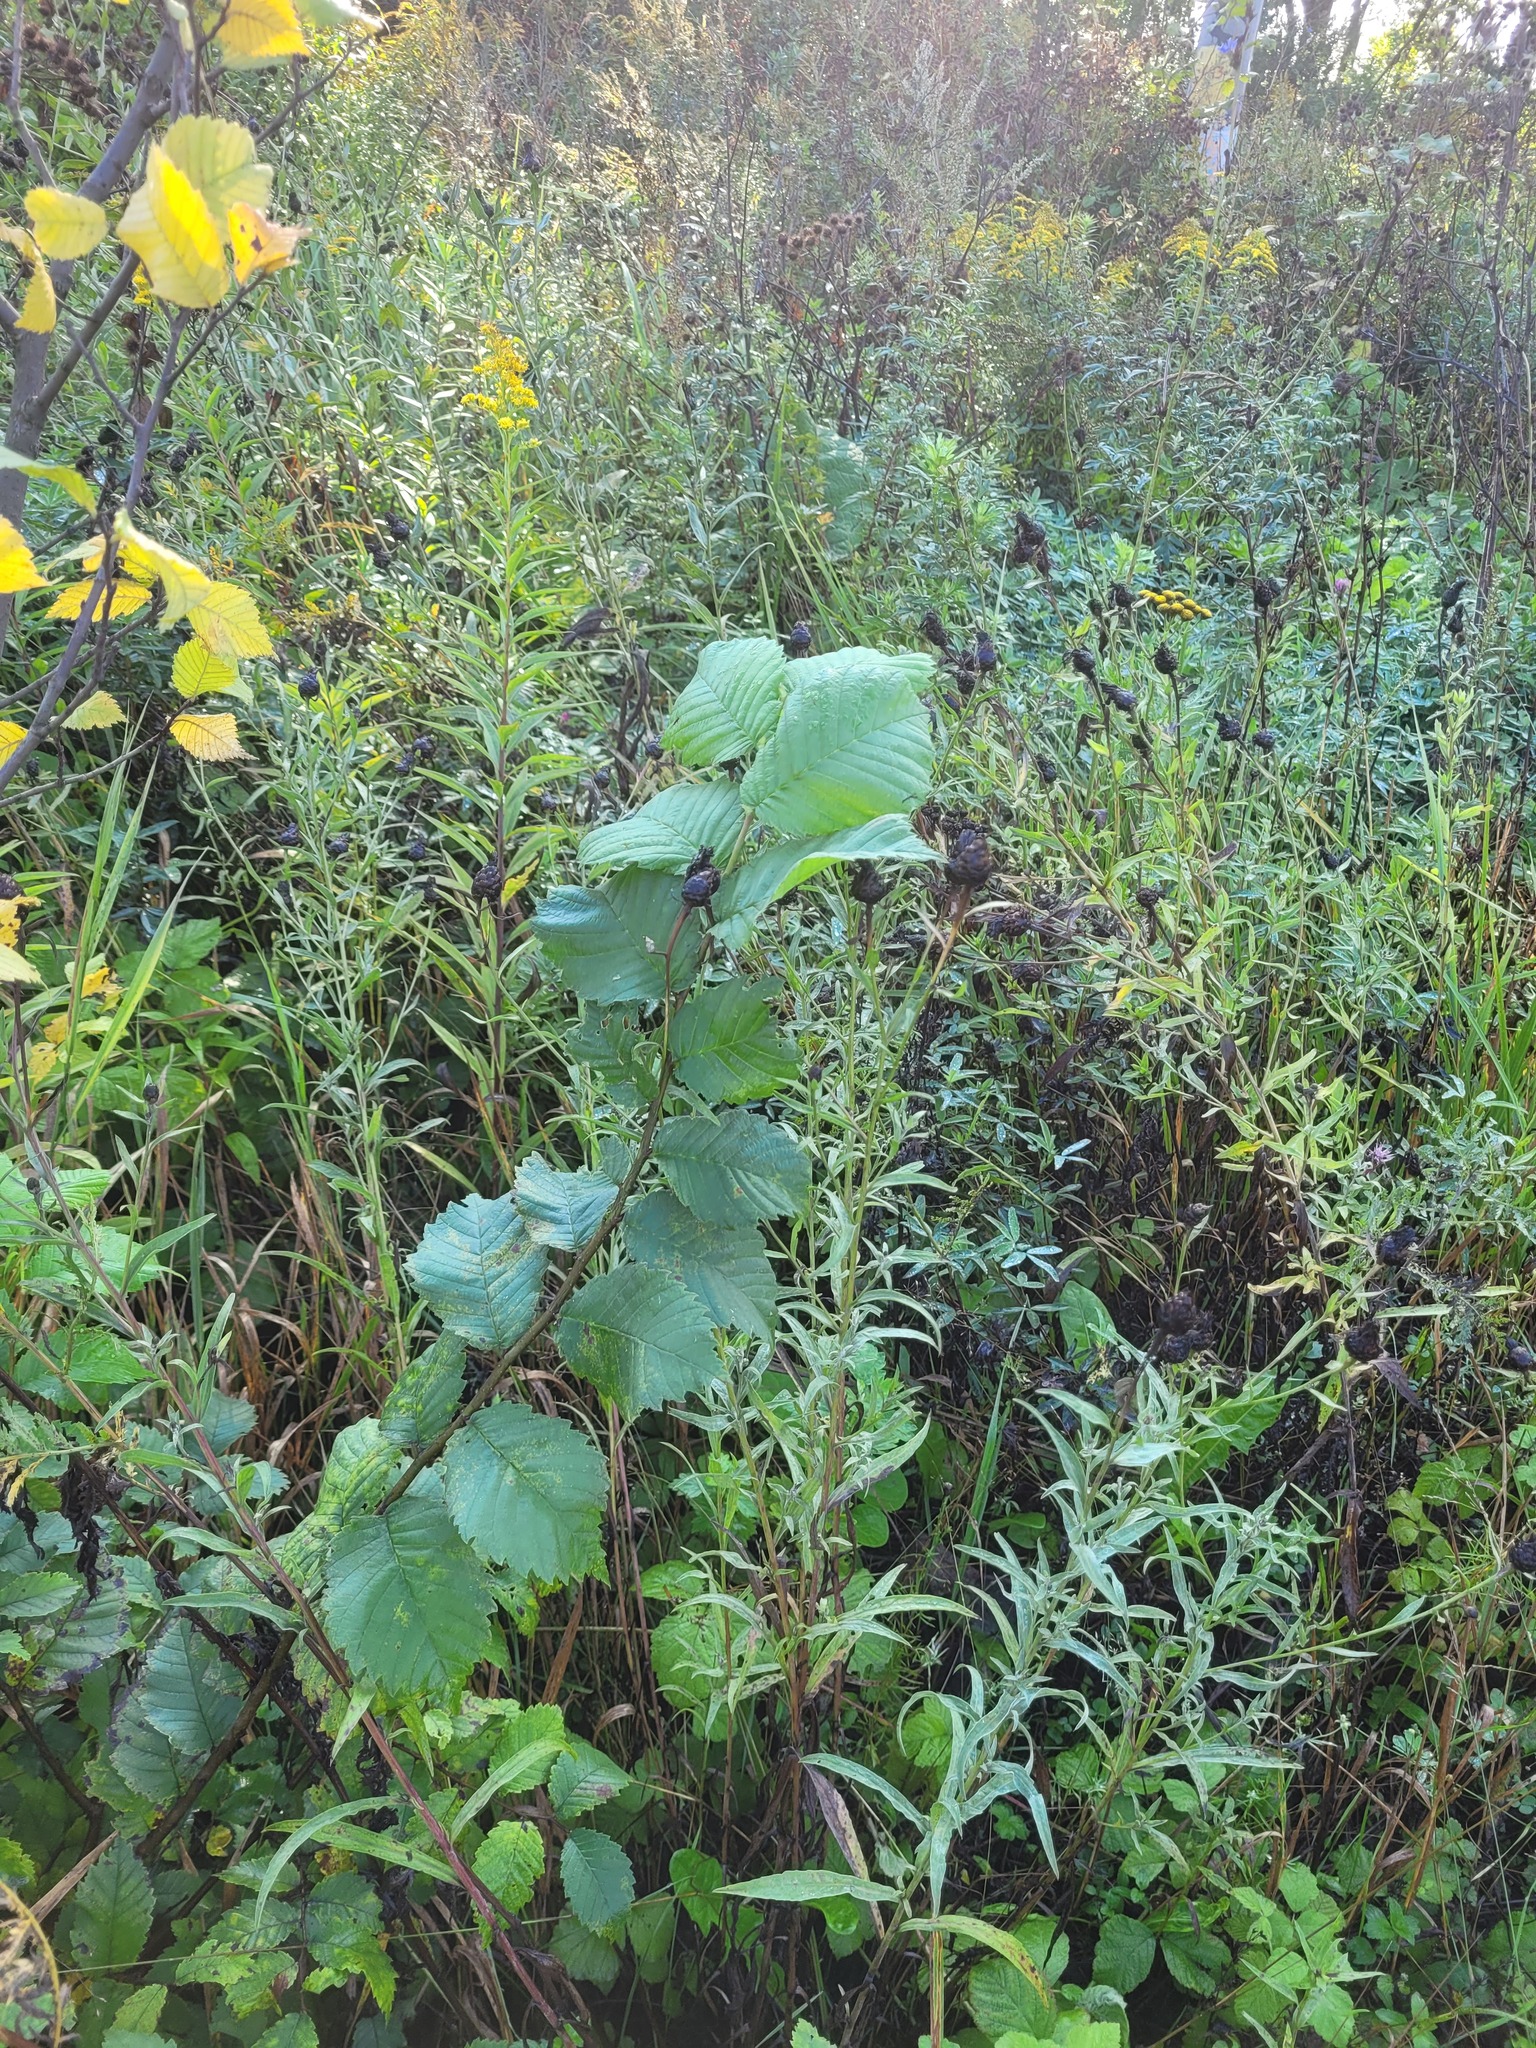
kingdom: Plantae
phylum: Tracheophyta
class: Magnoliopsida
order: Rosales
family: Ulmaceae
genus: Ulmus
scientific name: Ulmus laevis
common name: European white-elm
